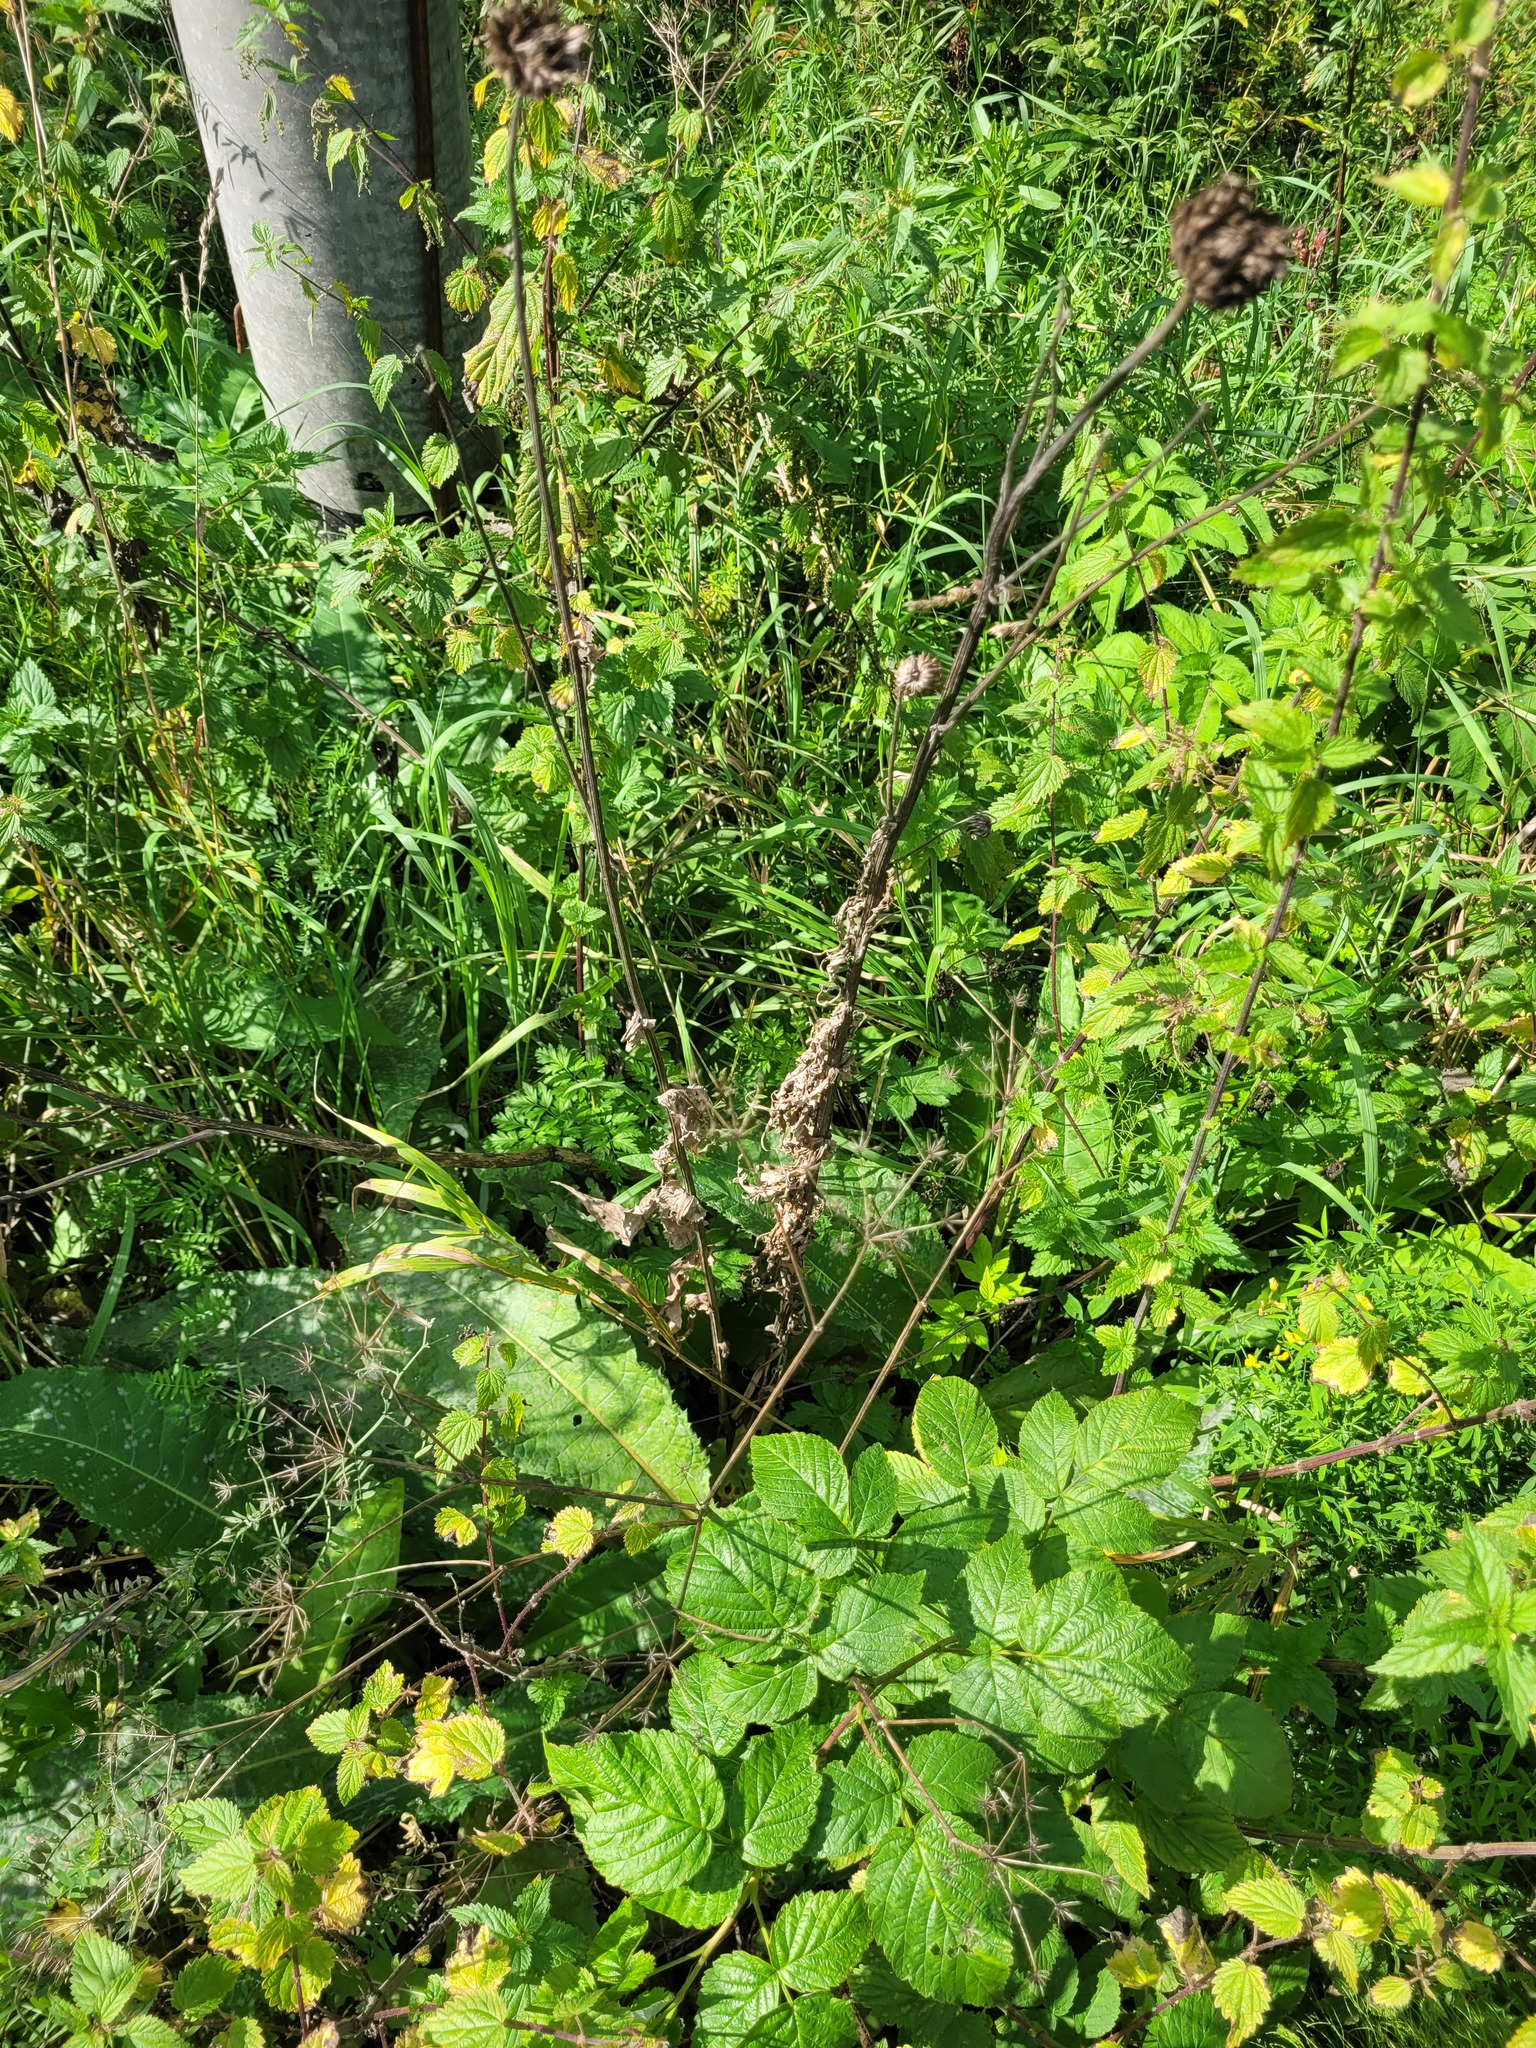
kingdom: Plantae
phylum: Tracheophyta
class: Magnoliopsida
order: Asterales
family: Asteraceae
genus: Cirsium
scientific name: Cirsium heterophyllum
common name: Melancholy thistle
